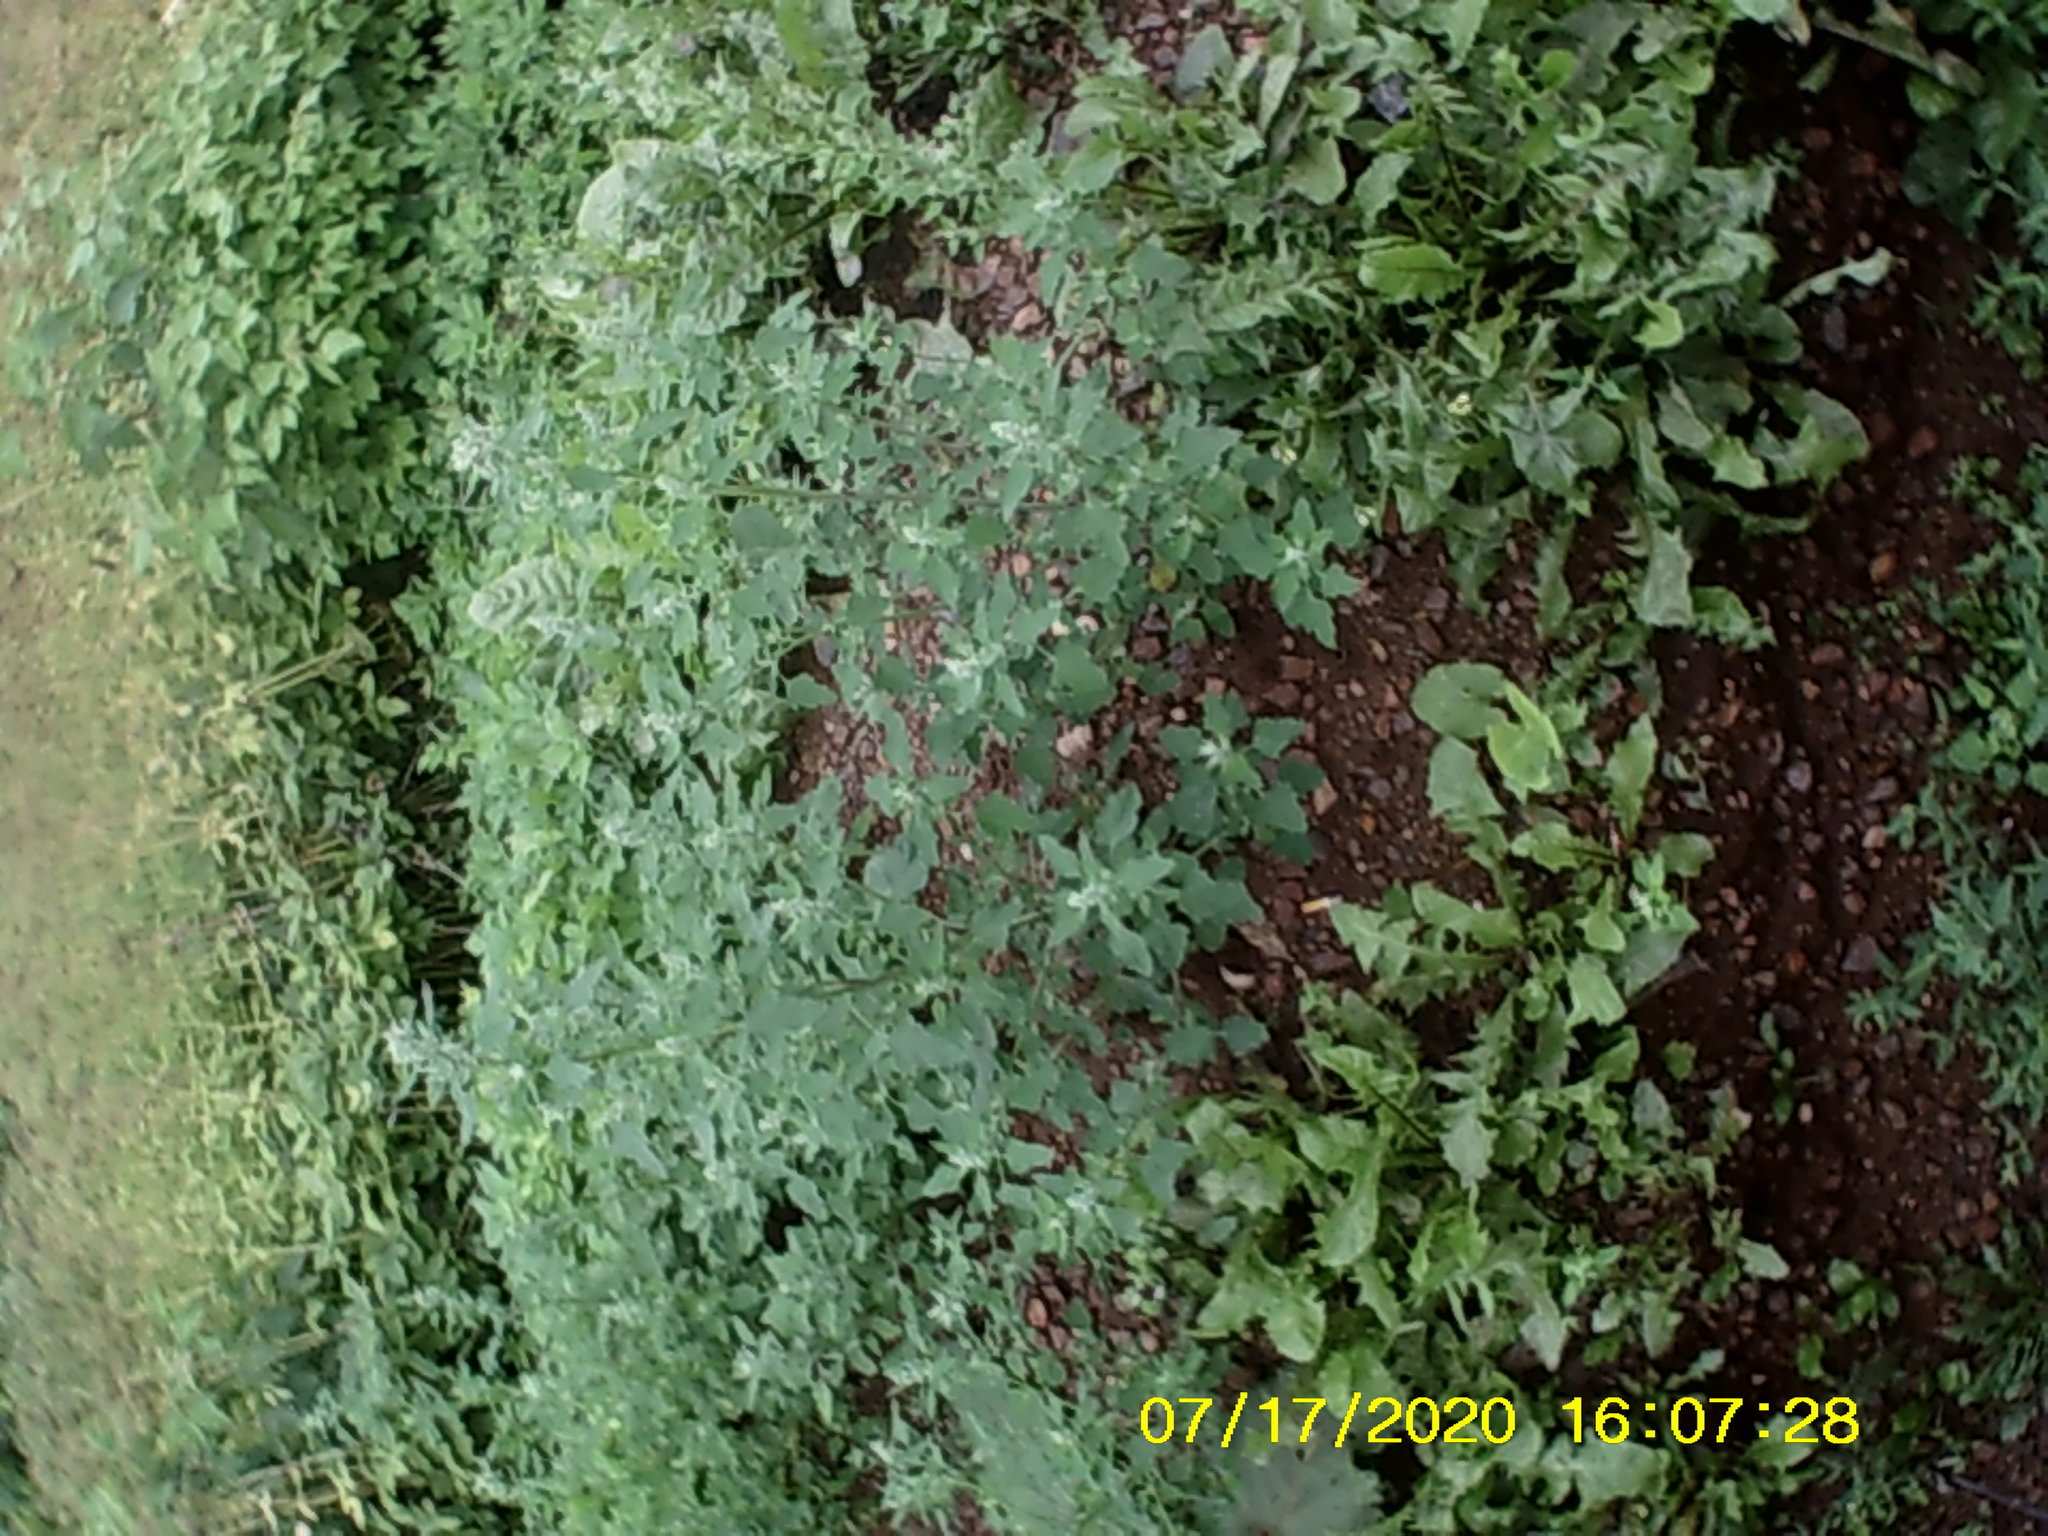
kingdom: Plantae
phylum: Tracheophyta
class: Magnoliopsida
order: Caryophyllales
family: Amaranthaceae
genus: Chenopodium
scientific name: Chenopodium album
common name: Fat-hen
